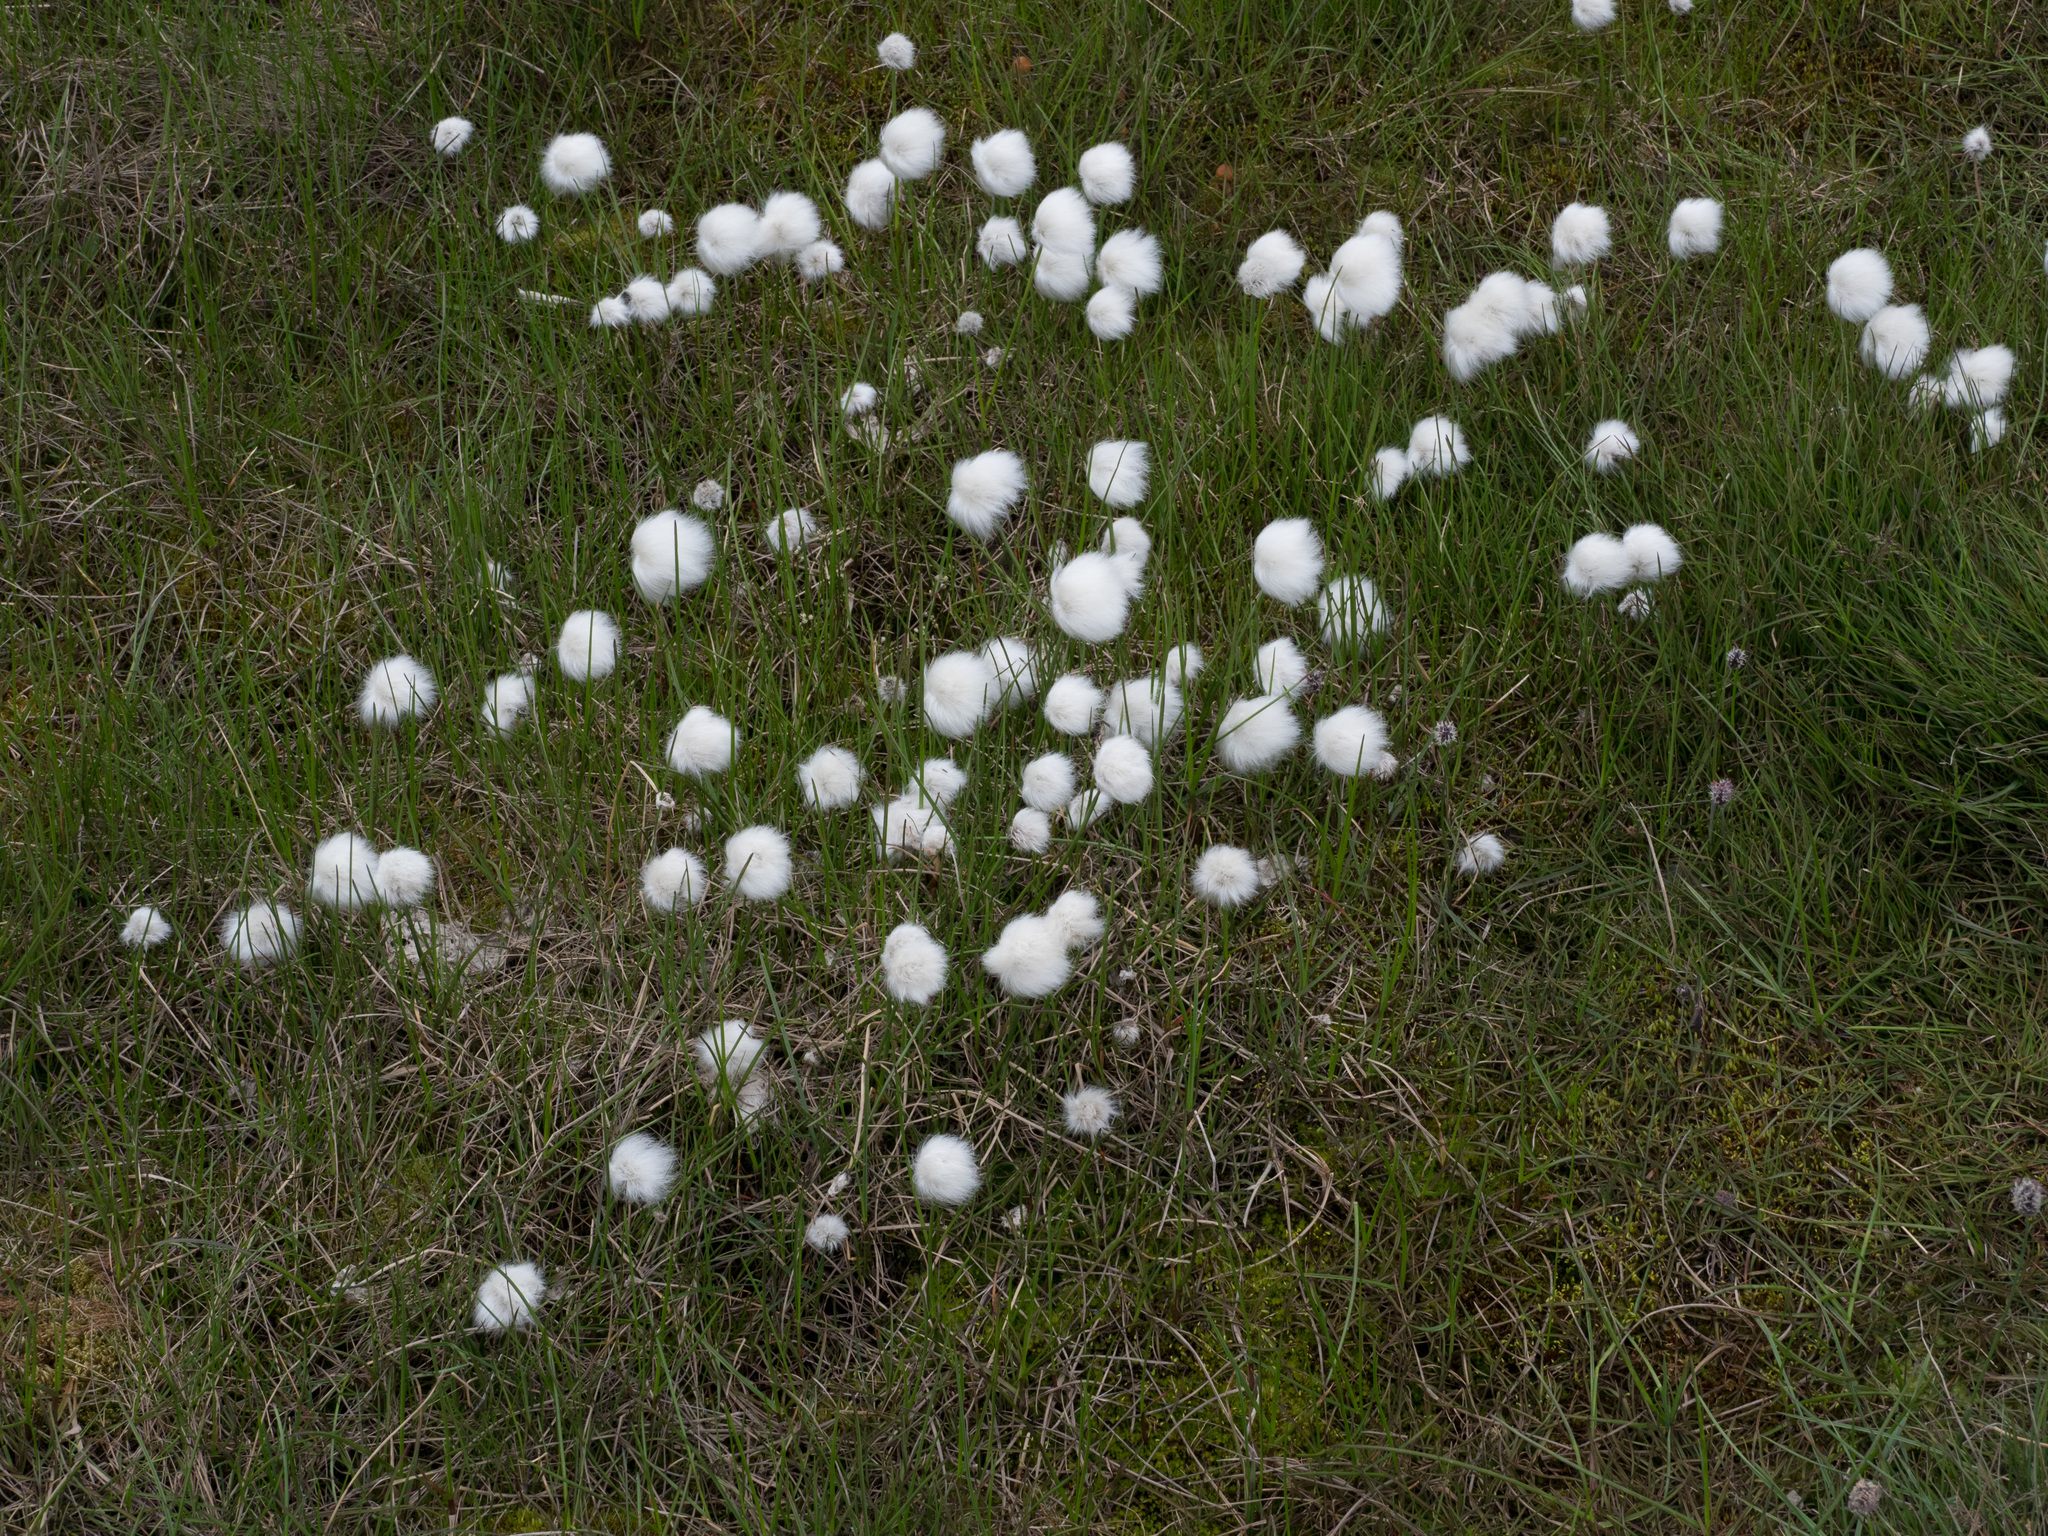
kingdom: Plantae
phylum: Tracheophyta
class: Liliopsida
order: Poales
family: Cyperaceae
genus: Eriophorum
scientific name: Eriophorum scheuchzeri
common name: Scheuchzer's cottongrass
